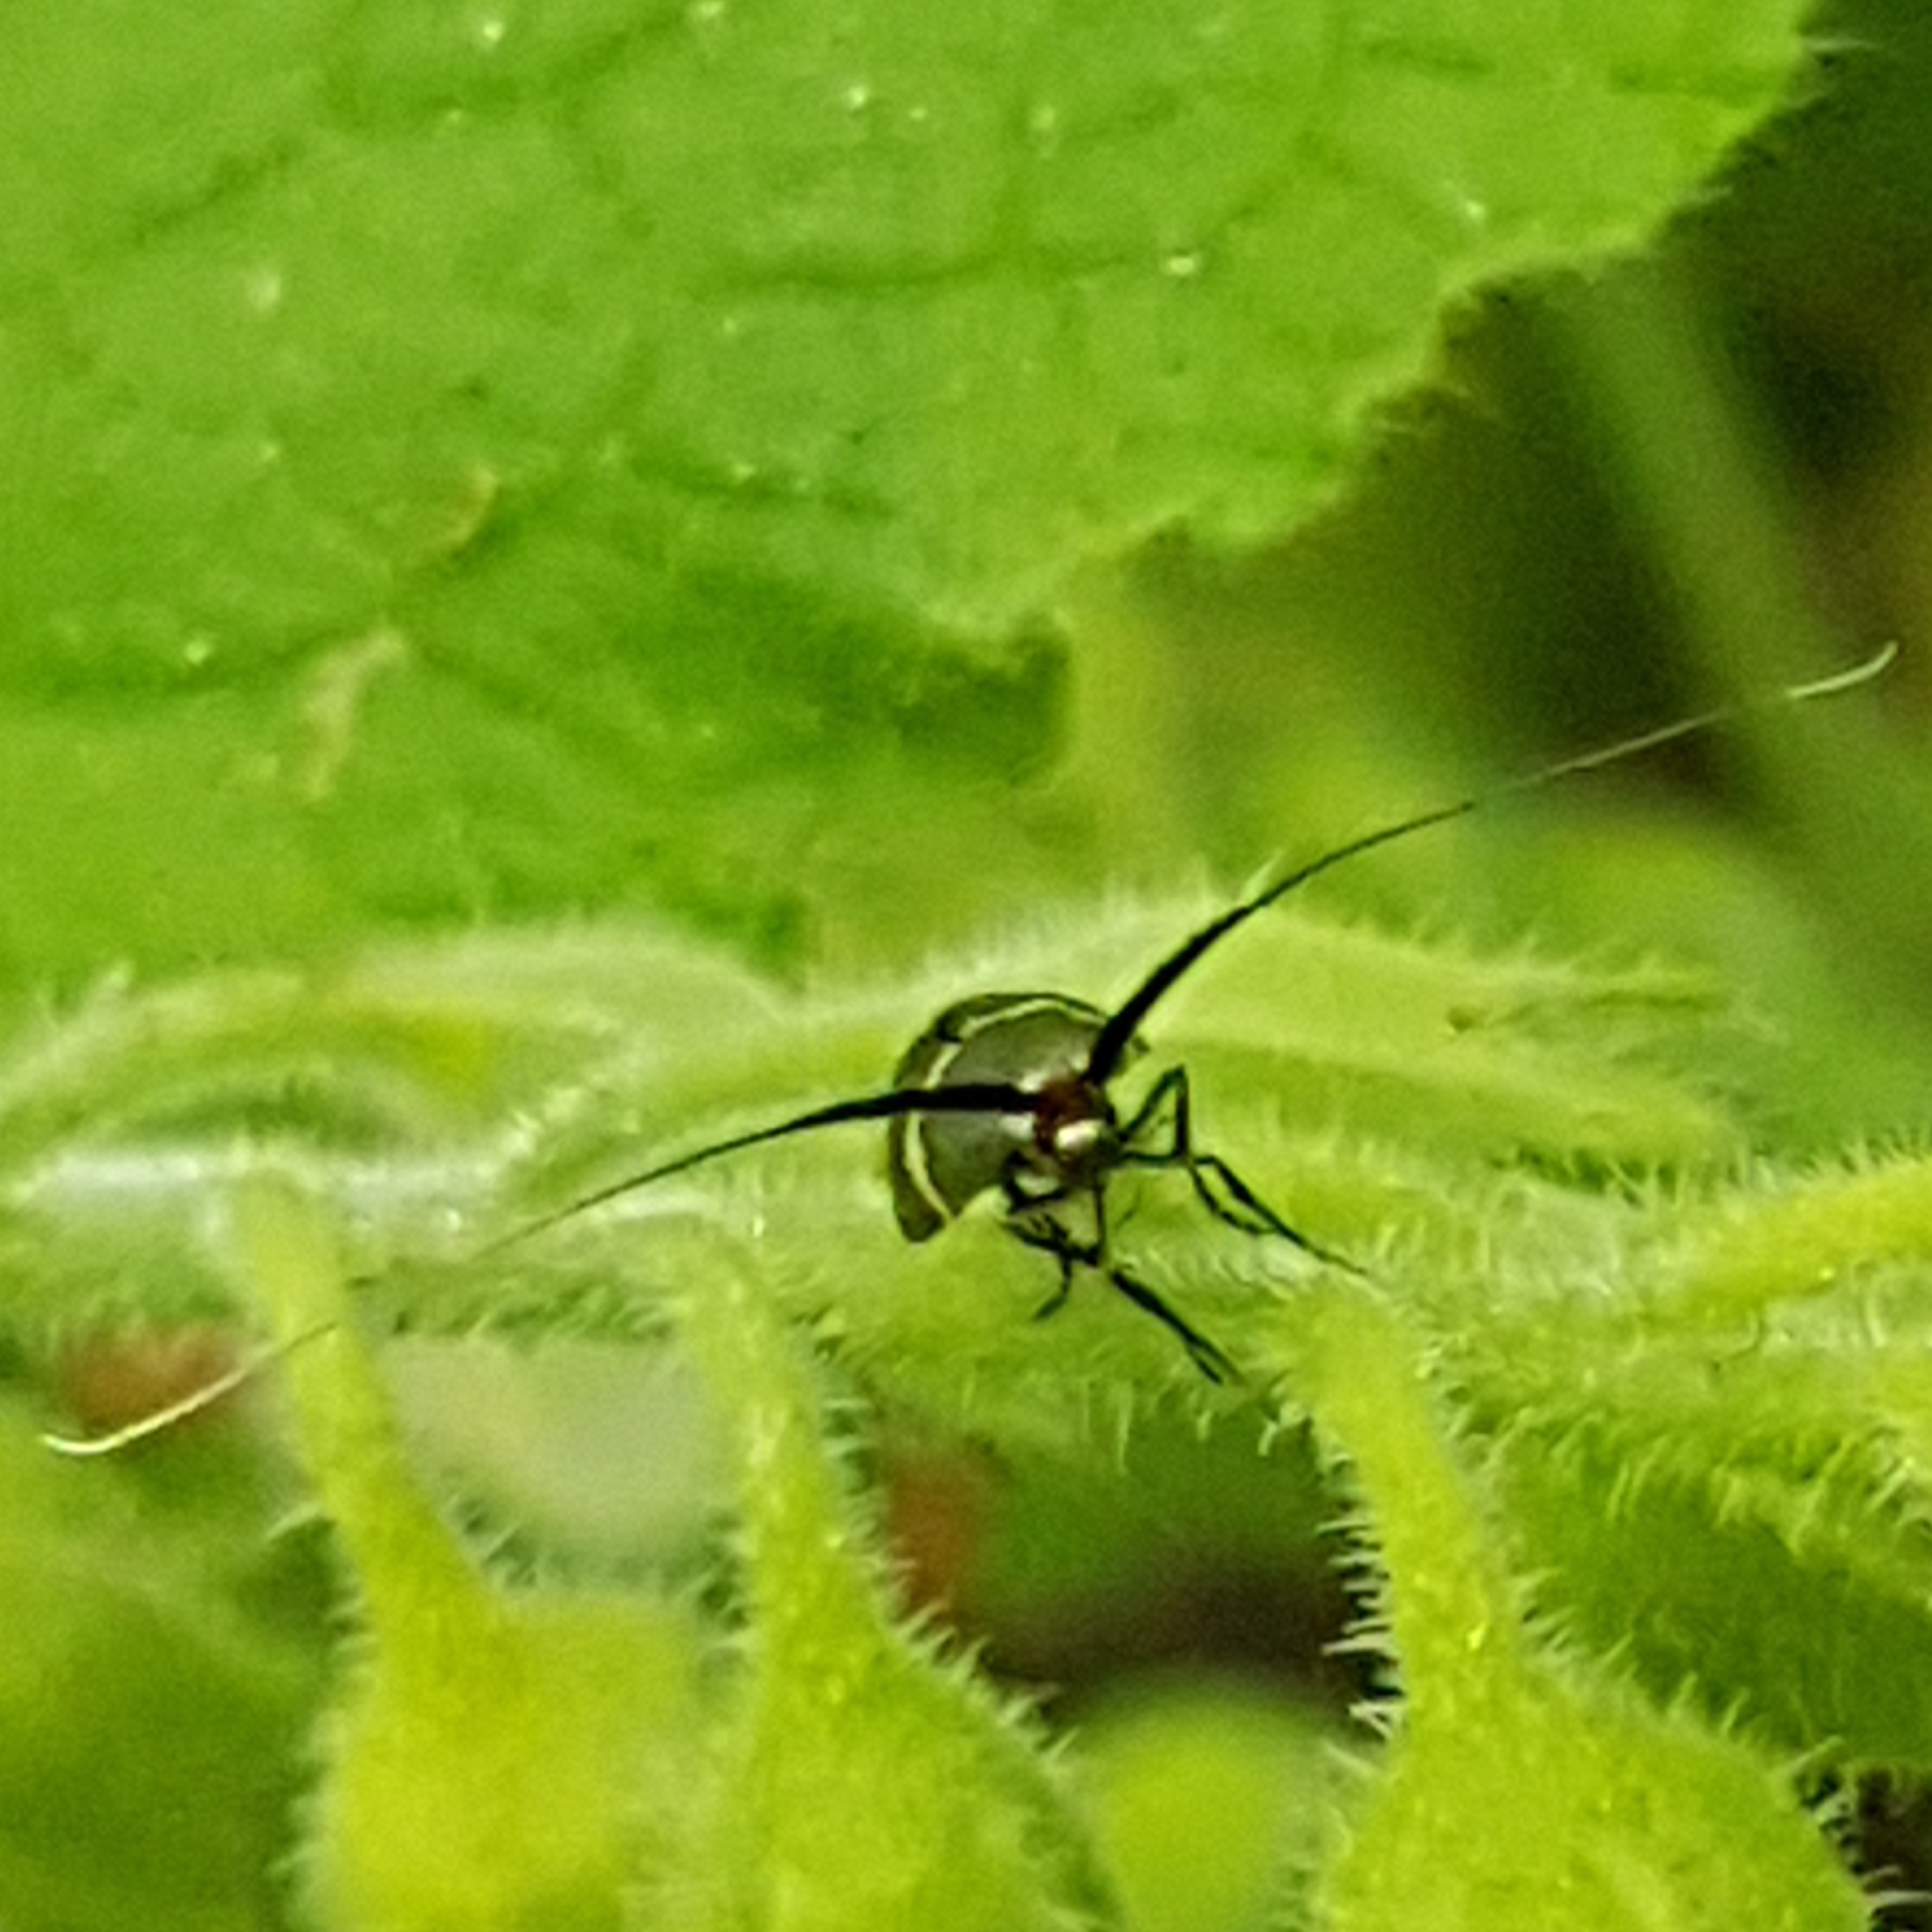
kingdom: Animalia
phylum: Arthropoda
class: Insecta
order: Lepidoptera
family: Adelidae
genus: Adela
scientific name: Adela australis
